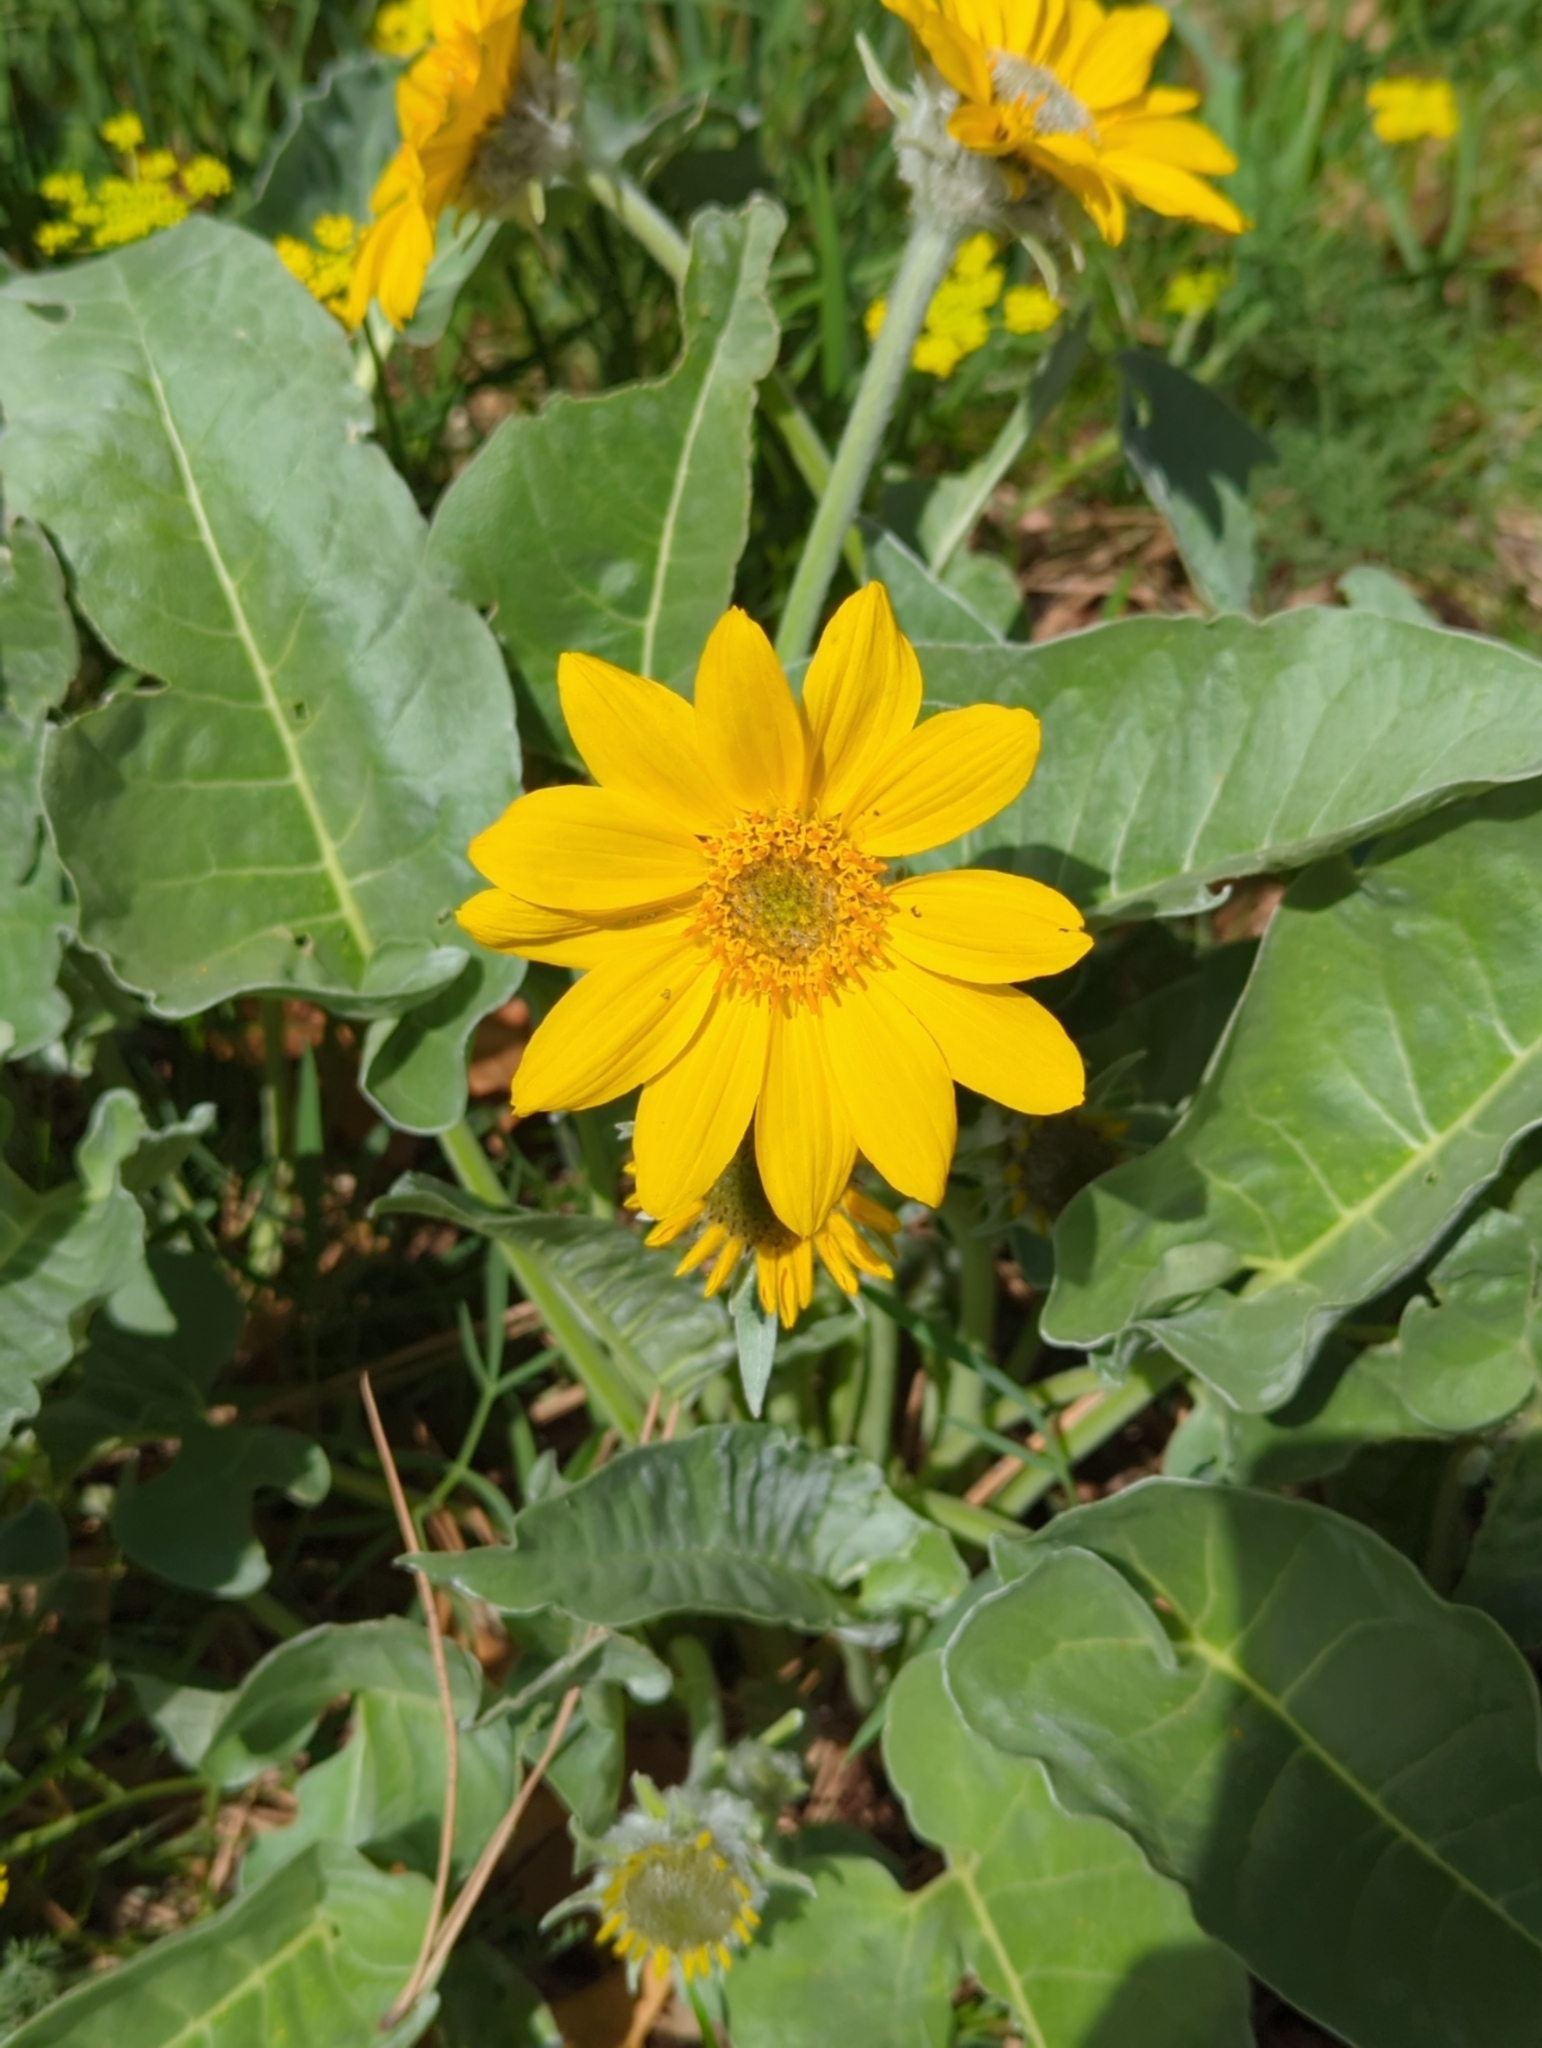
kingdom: Plantae
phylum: Tracheophyta
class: Magnoliopsida
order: Asterales
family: Asteraceae
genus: Wyethia
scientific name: Wyethia sagittata
